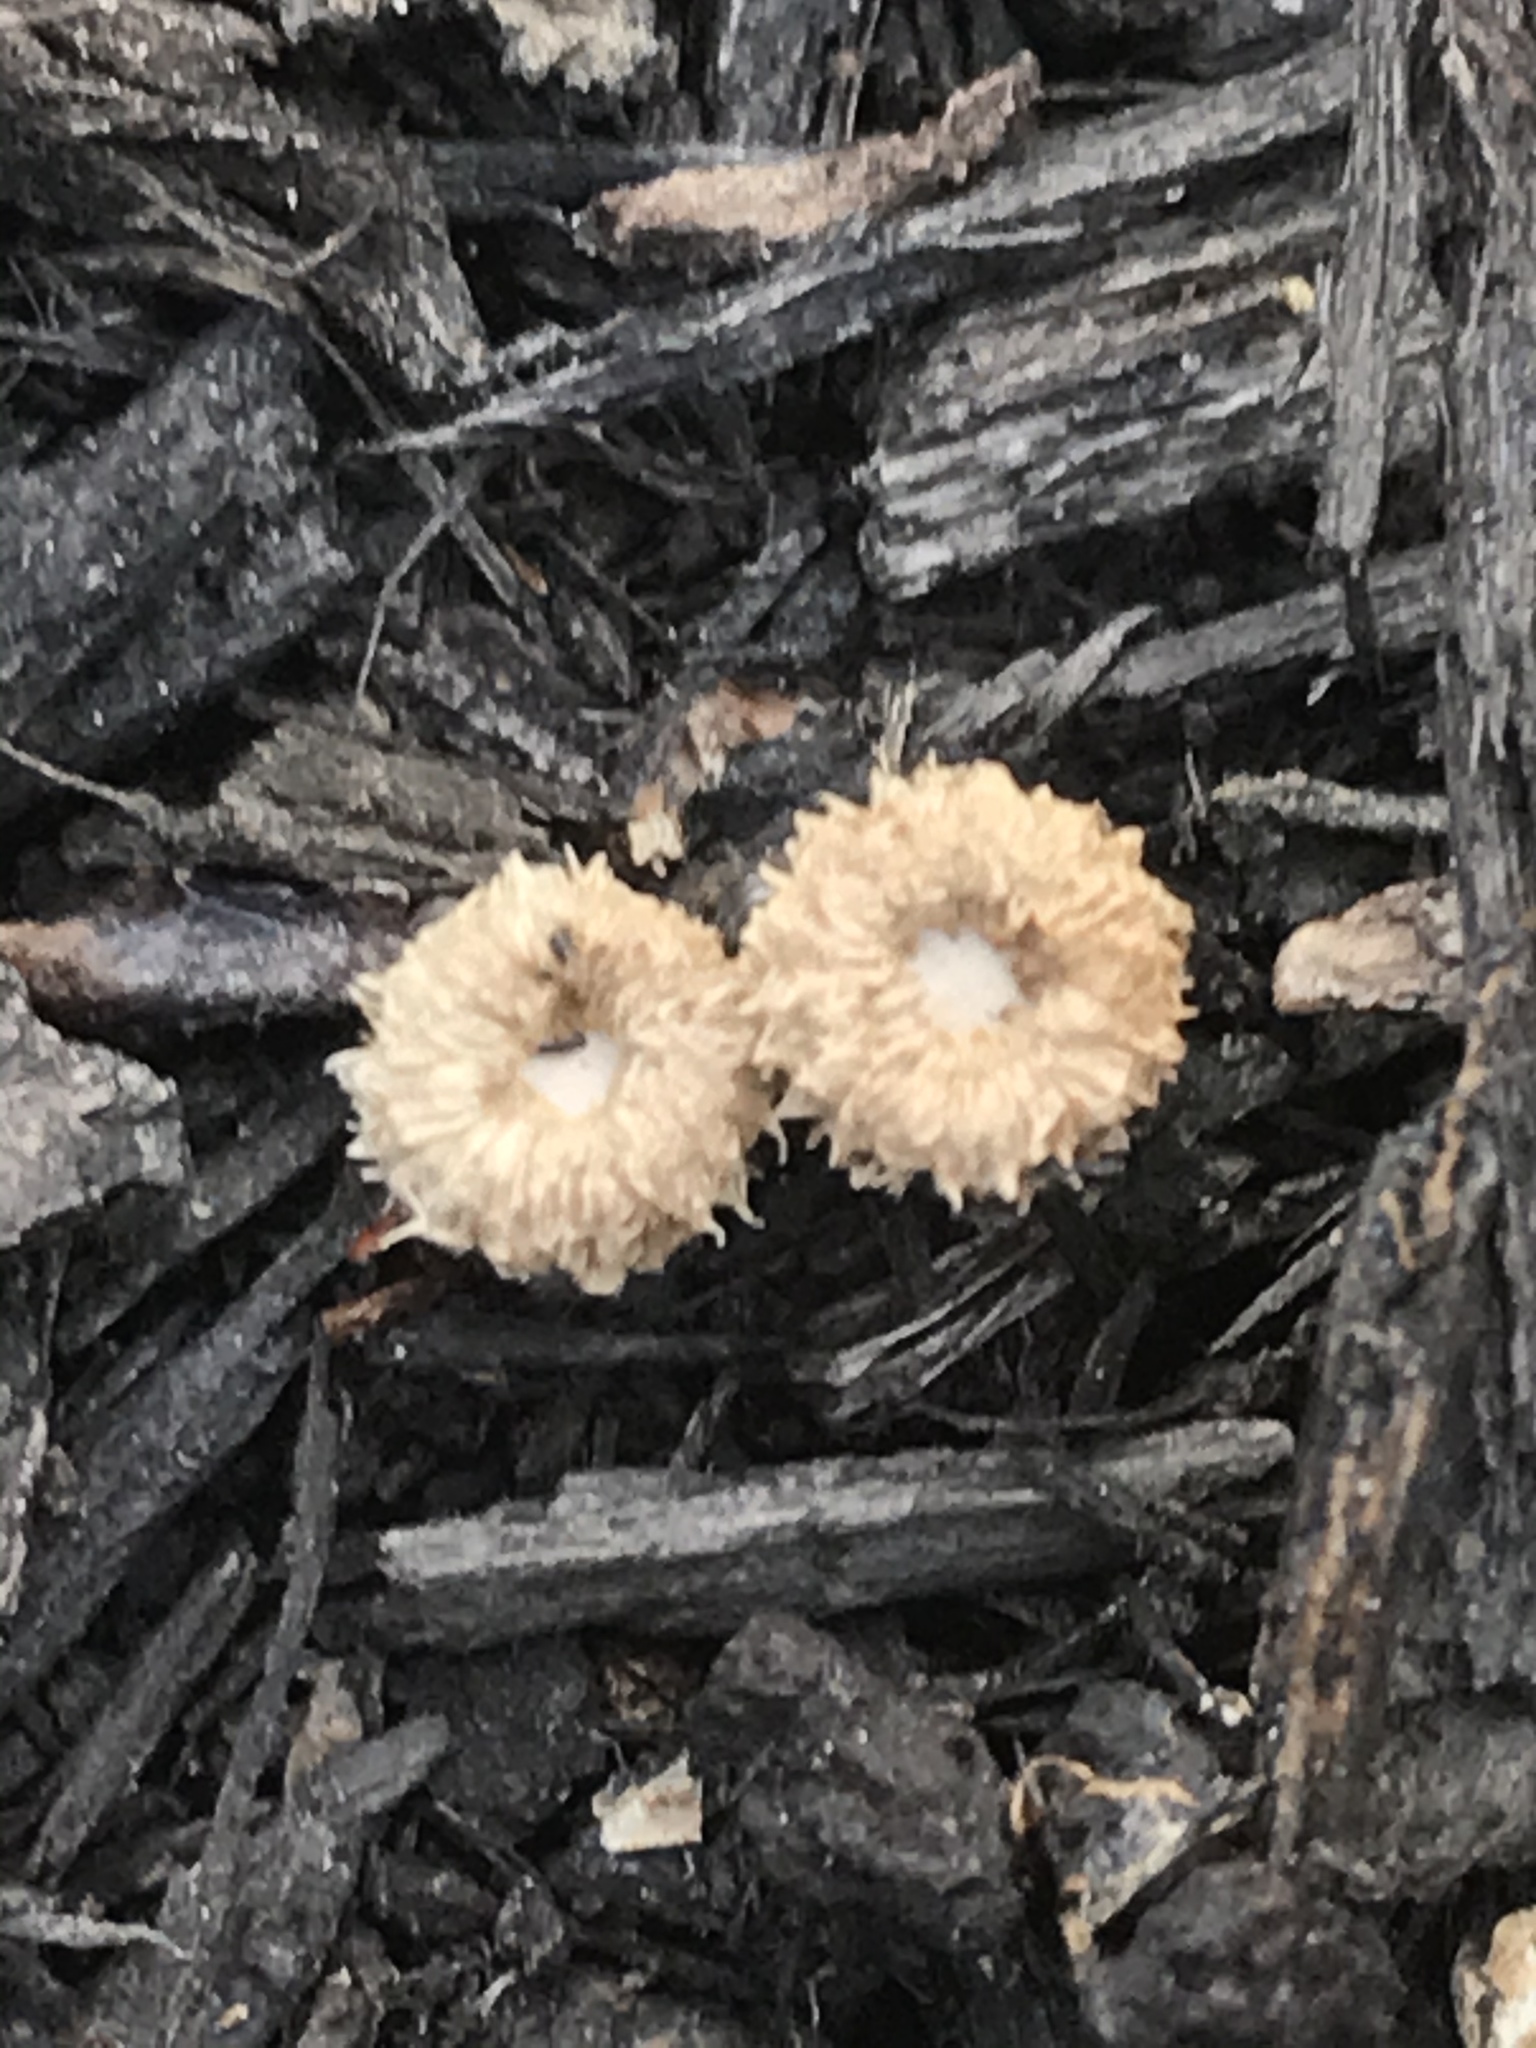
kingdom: Fungi
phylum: Basidiomycota
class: Agaricomycetes
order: Agaricales
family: Agaricaceae
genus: Cyathus
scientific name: Cyathus striatus
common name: Fluted bird's nest
